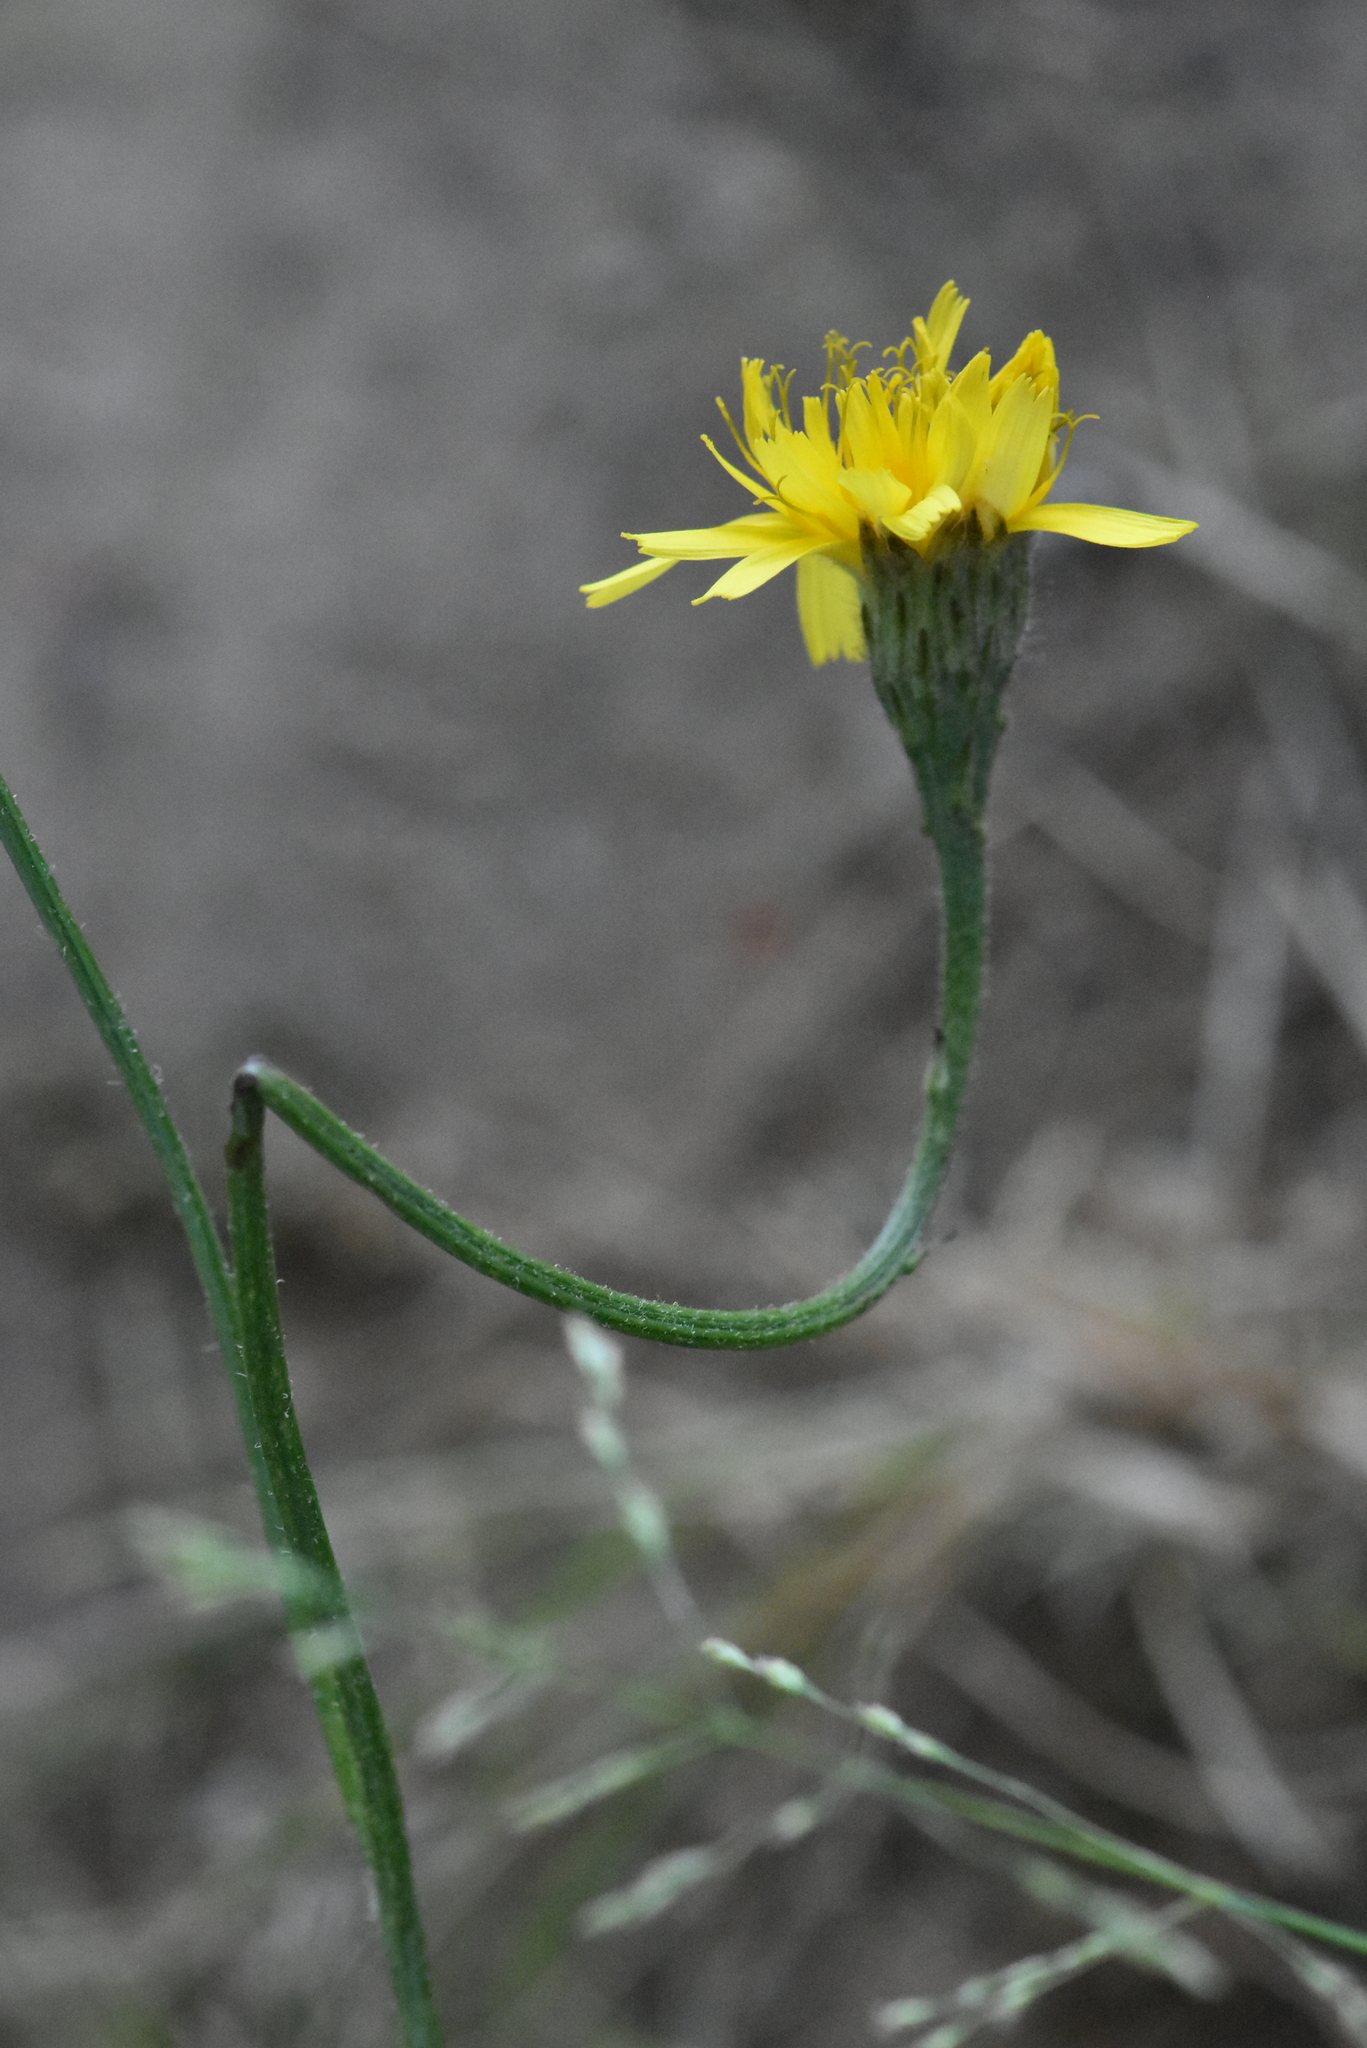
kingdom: Plantae
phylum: Tracheophyta
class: Magnoliopsida
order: Asterales
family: Asteraceae
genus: Scorzoneroides
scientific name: Scorzoneroides autumnalis
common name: Autumn hawkbit
